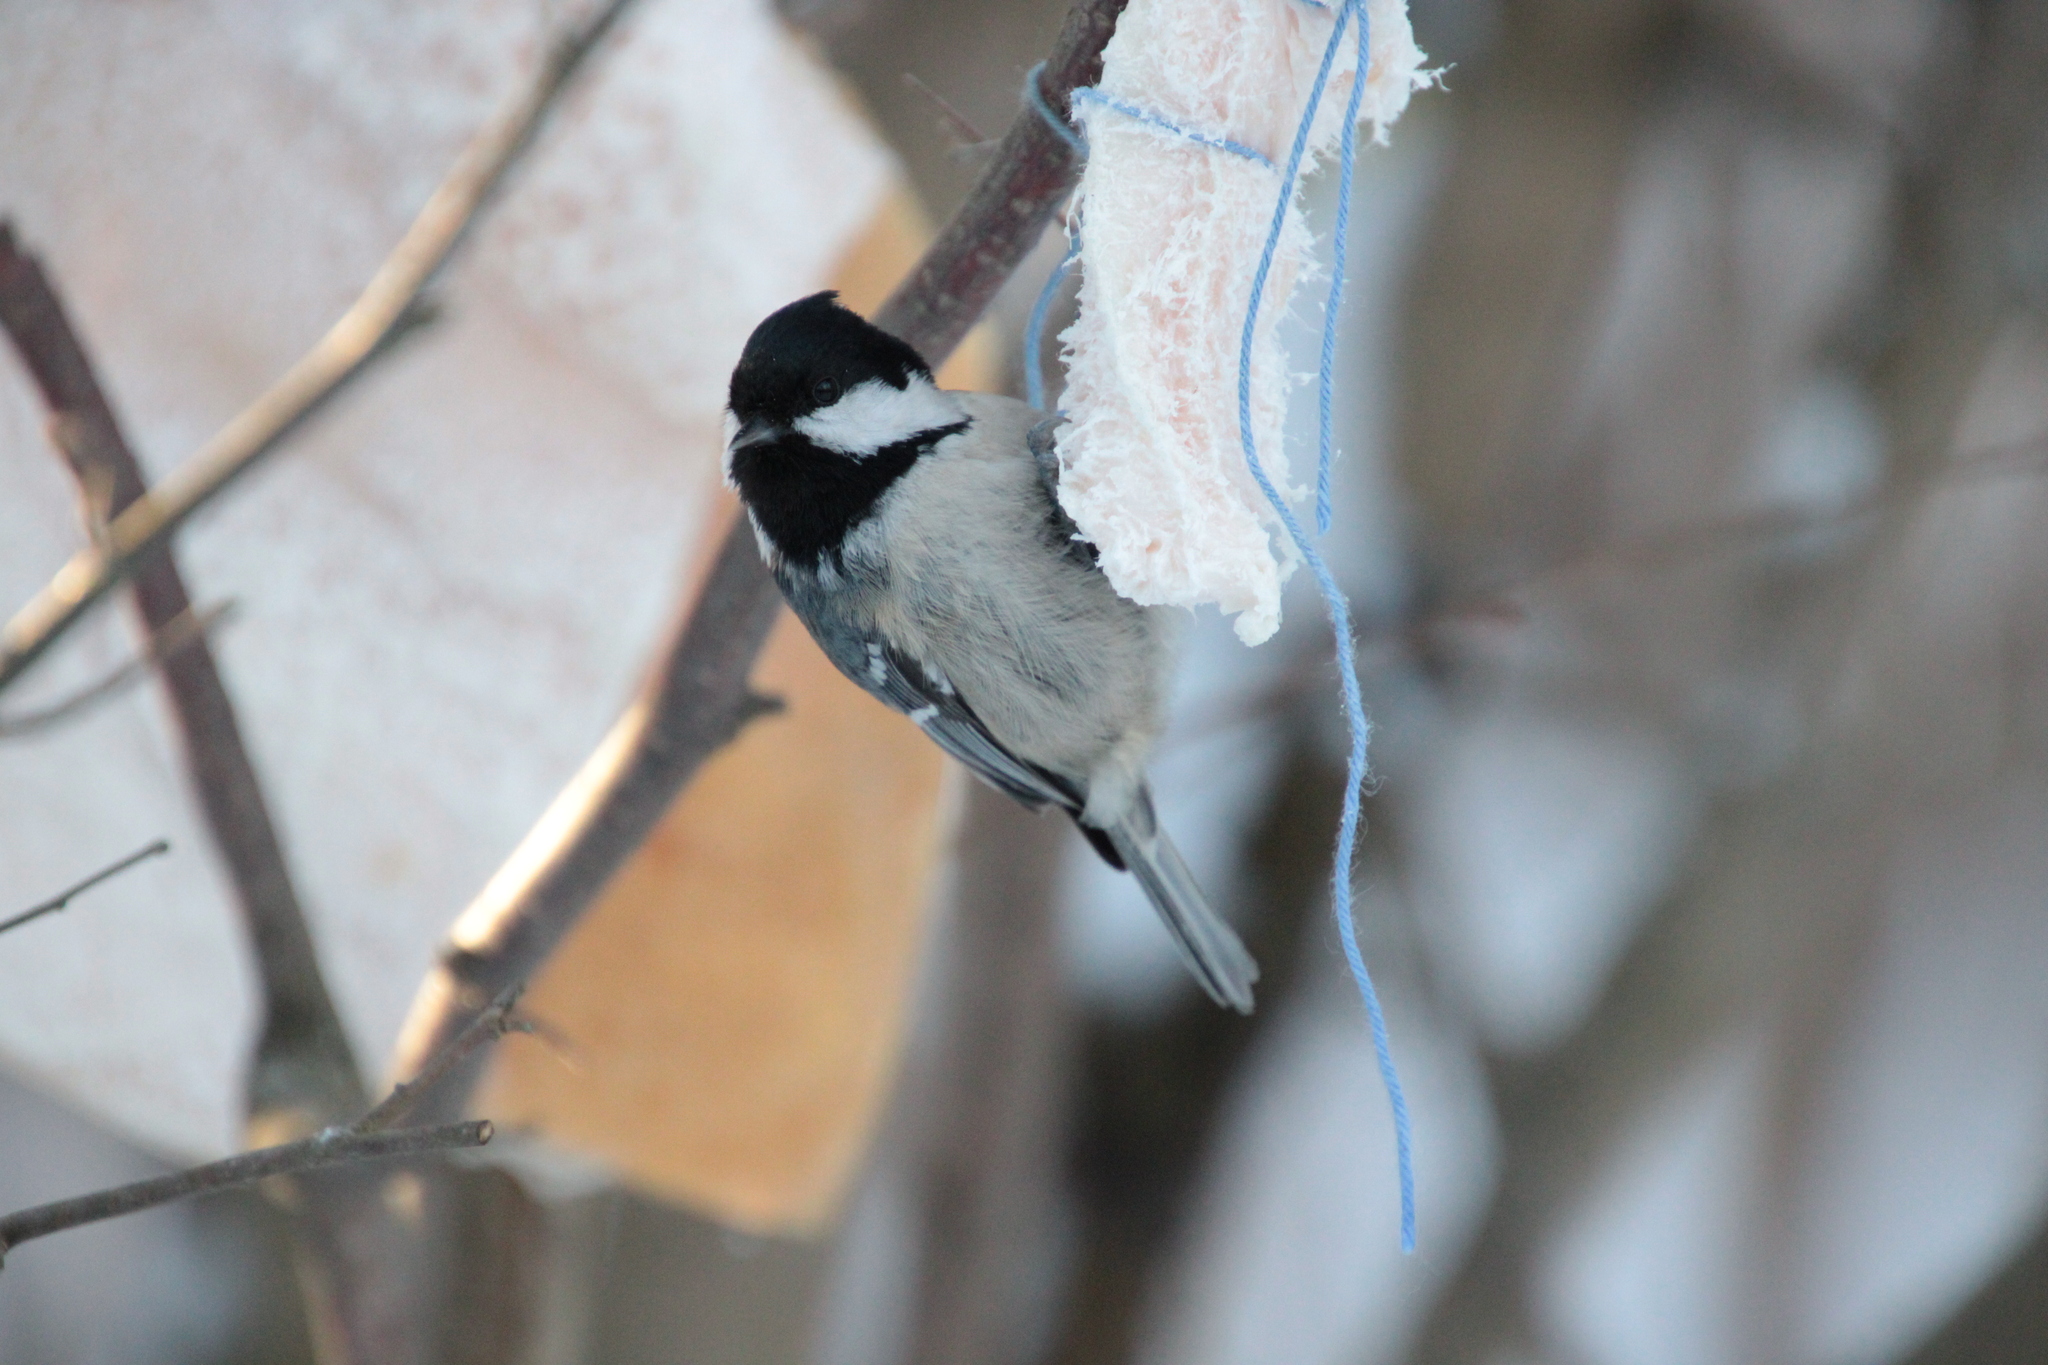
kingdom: Animalia
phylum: Chordata
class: Aves
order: Passeriformes
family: Paridae
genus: Periparus
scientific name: Periparus ater
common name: Coal tit
